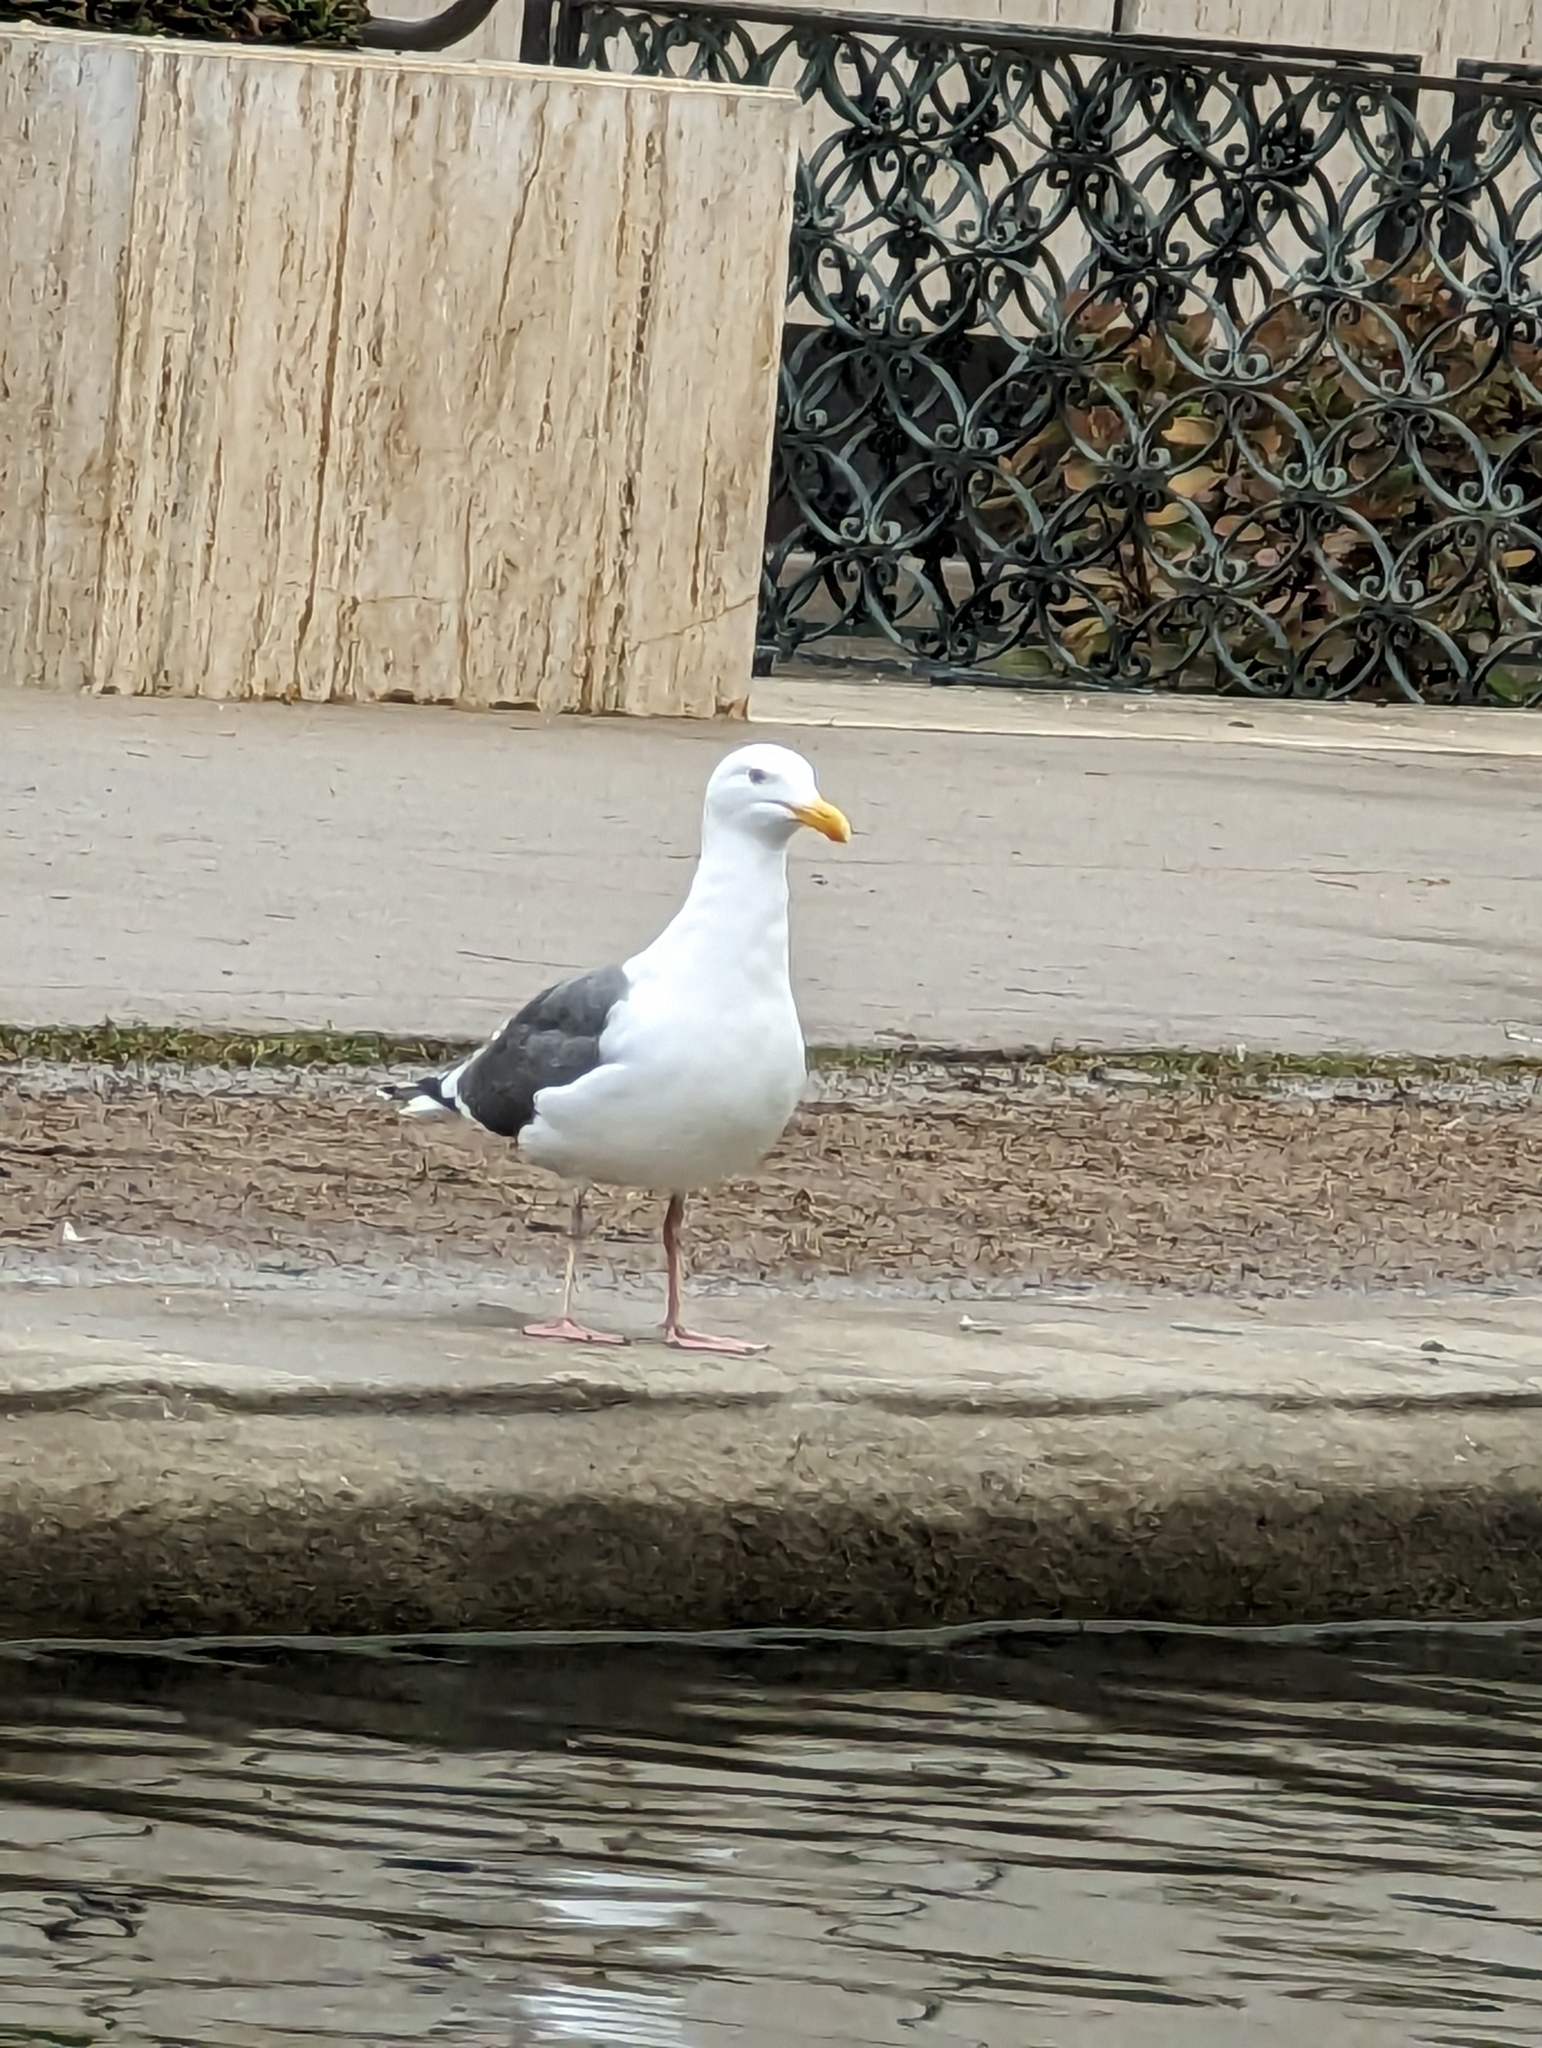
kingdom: Animalia
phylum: Chordata
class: Aves
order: Charadriiformes
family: Laridae
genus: Larus
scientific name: Larus occidentalis
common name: Western gull
